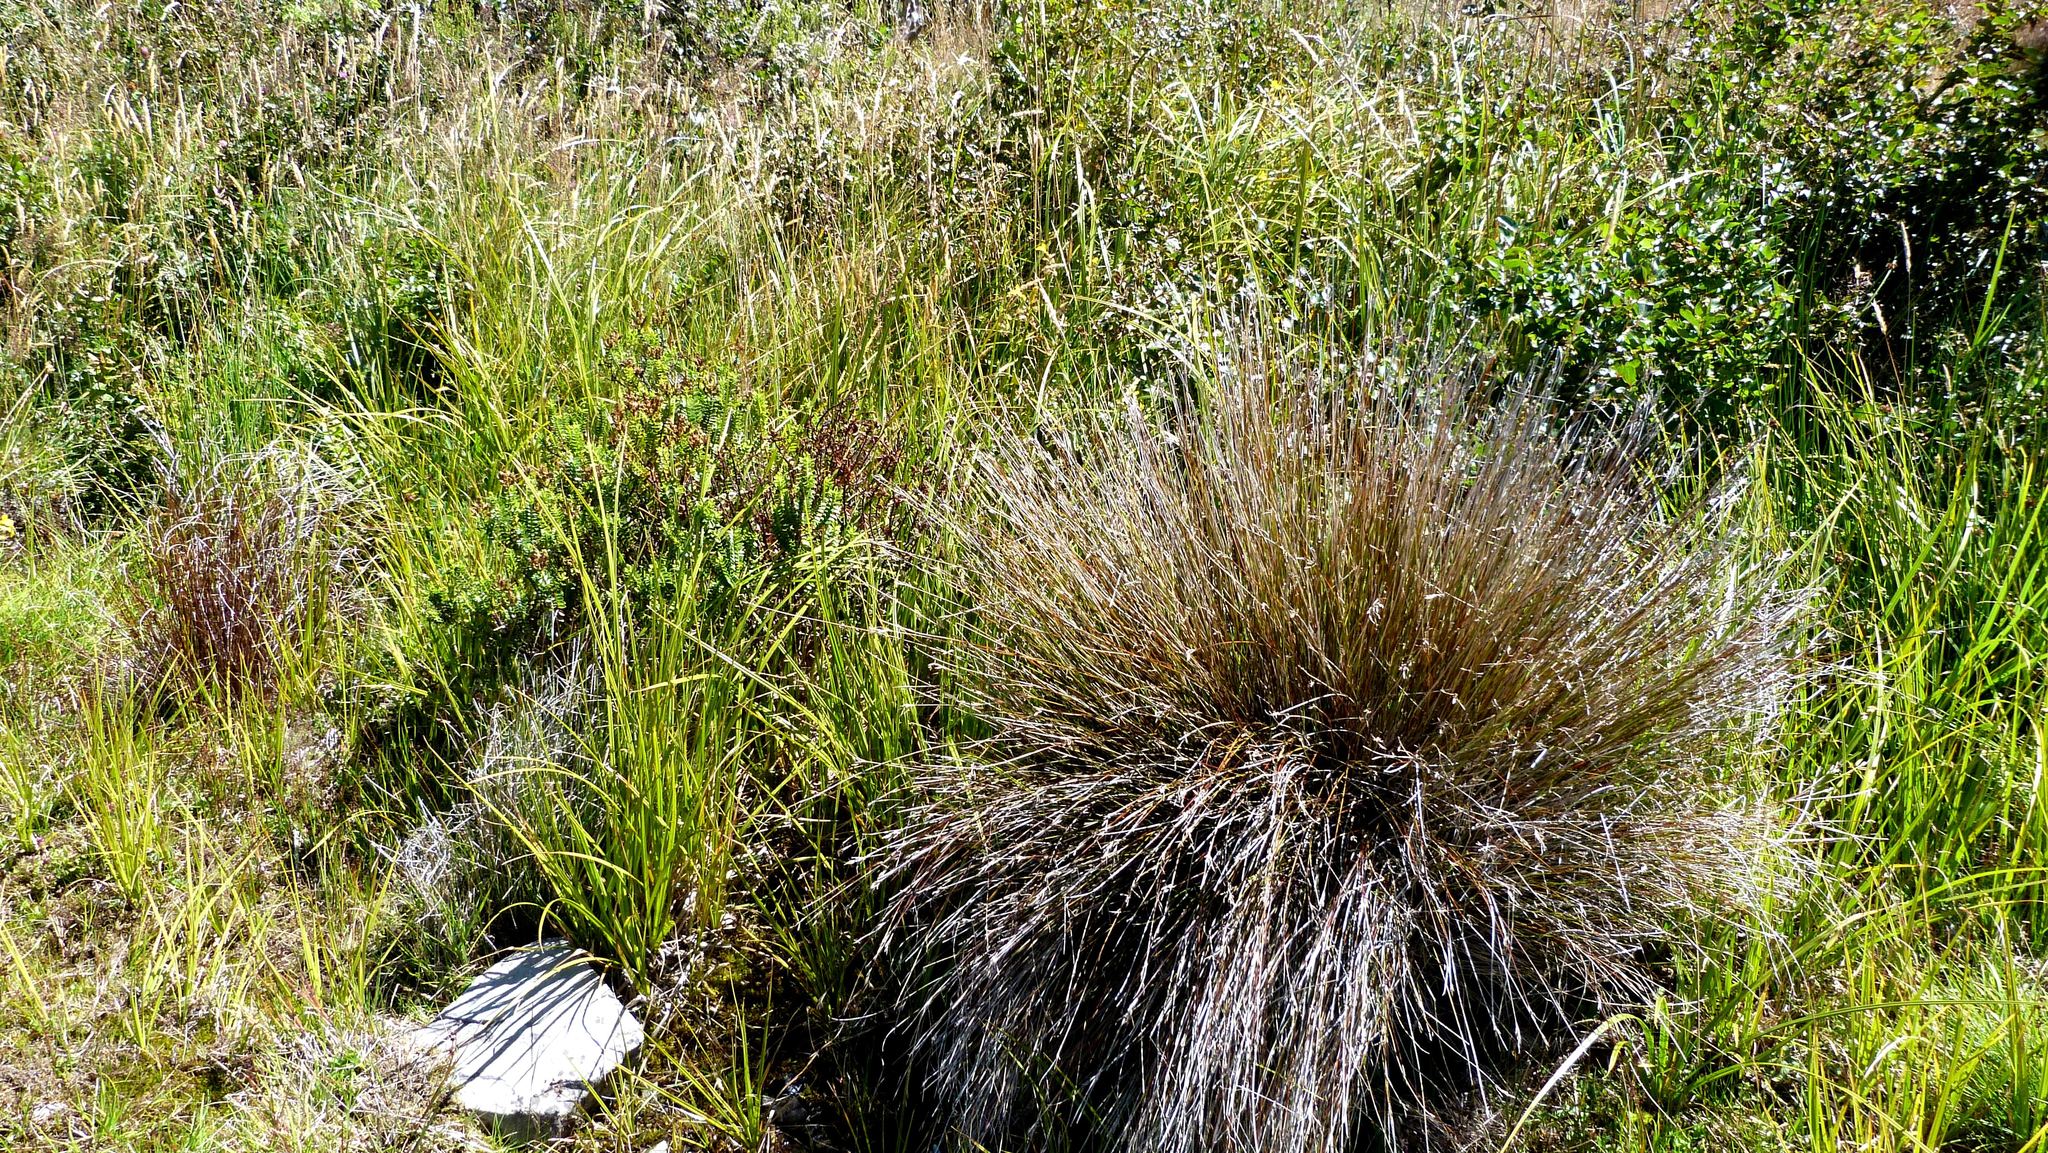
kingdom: Plantae
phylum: Tracheophyta
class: Liliopsida
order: Poales
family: Cyperaceae
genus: Schoenus
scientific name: Schoenus pauciflorus
